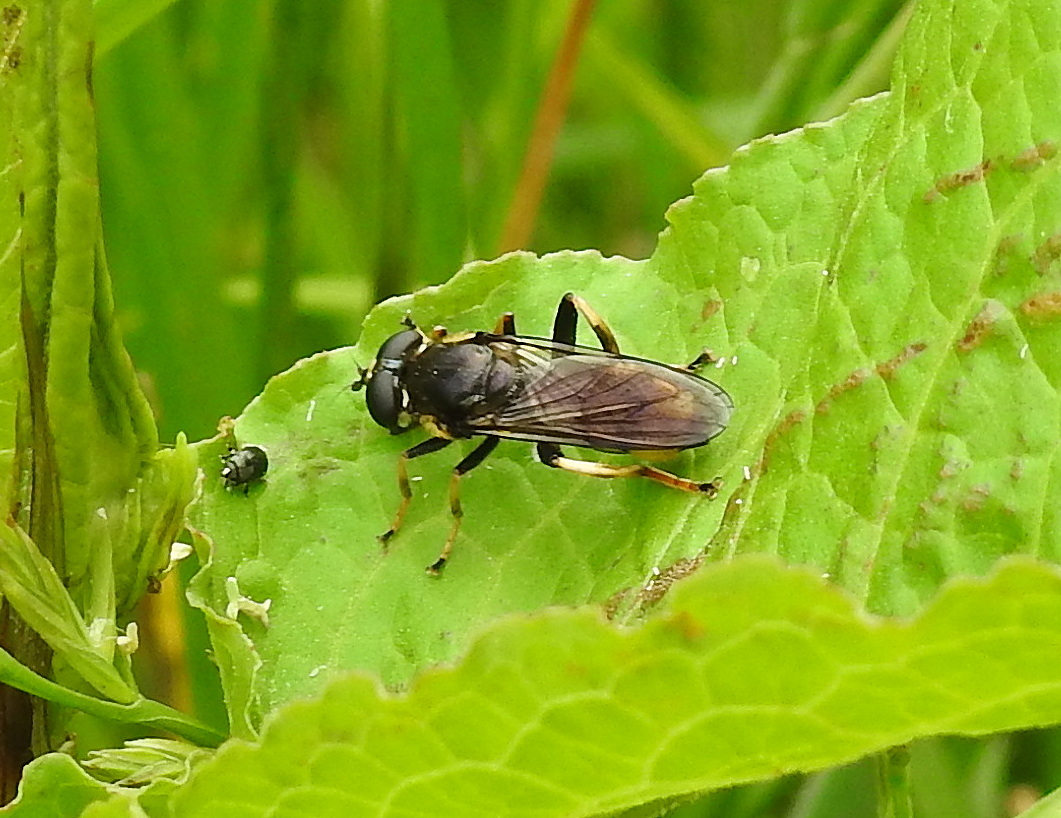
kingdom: Animalia
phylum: Arthropoda
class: Insecta
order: Diptera
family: Syrphidae
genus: Xylota
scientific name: Xylota segnis
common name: Brown-toed forest fly
